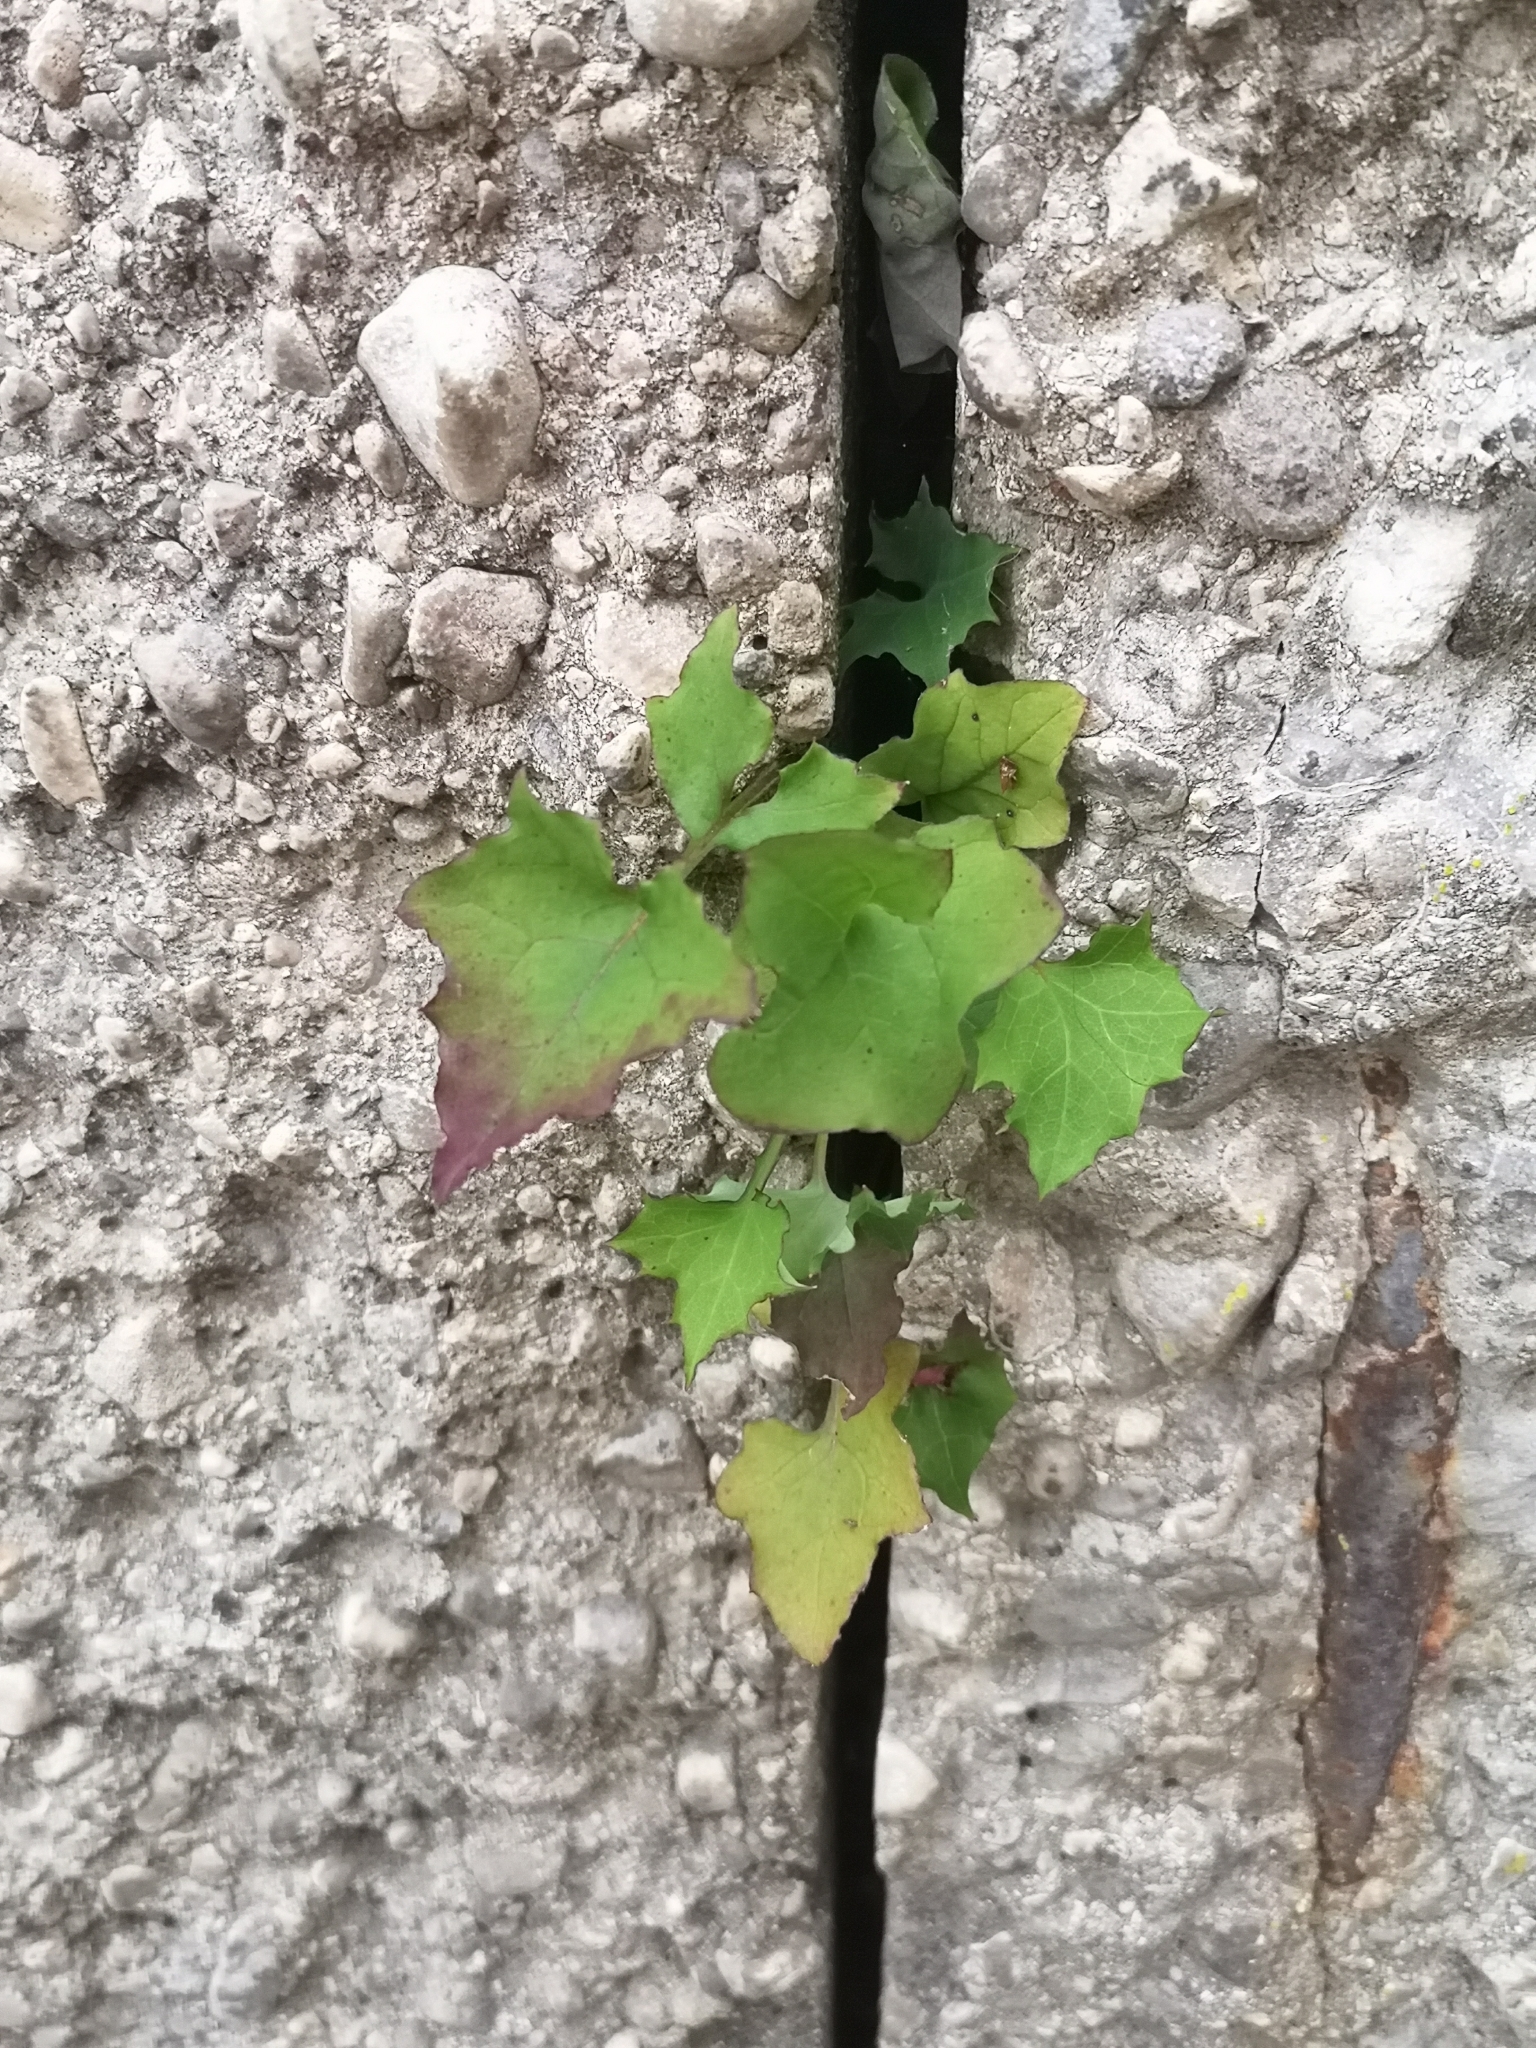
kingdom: Plantae
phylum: Tracheophyta
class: Magnoliopsida
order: Asterales
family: Asteraceae
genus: Mycelis
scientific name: Mycelis muralis
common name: Wall lettuce
